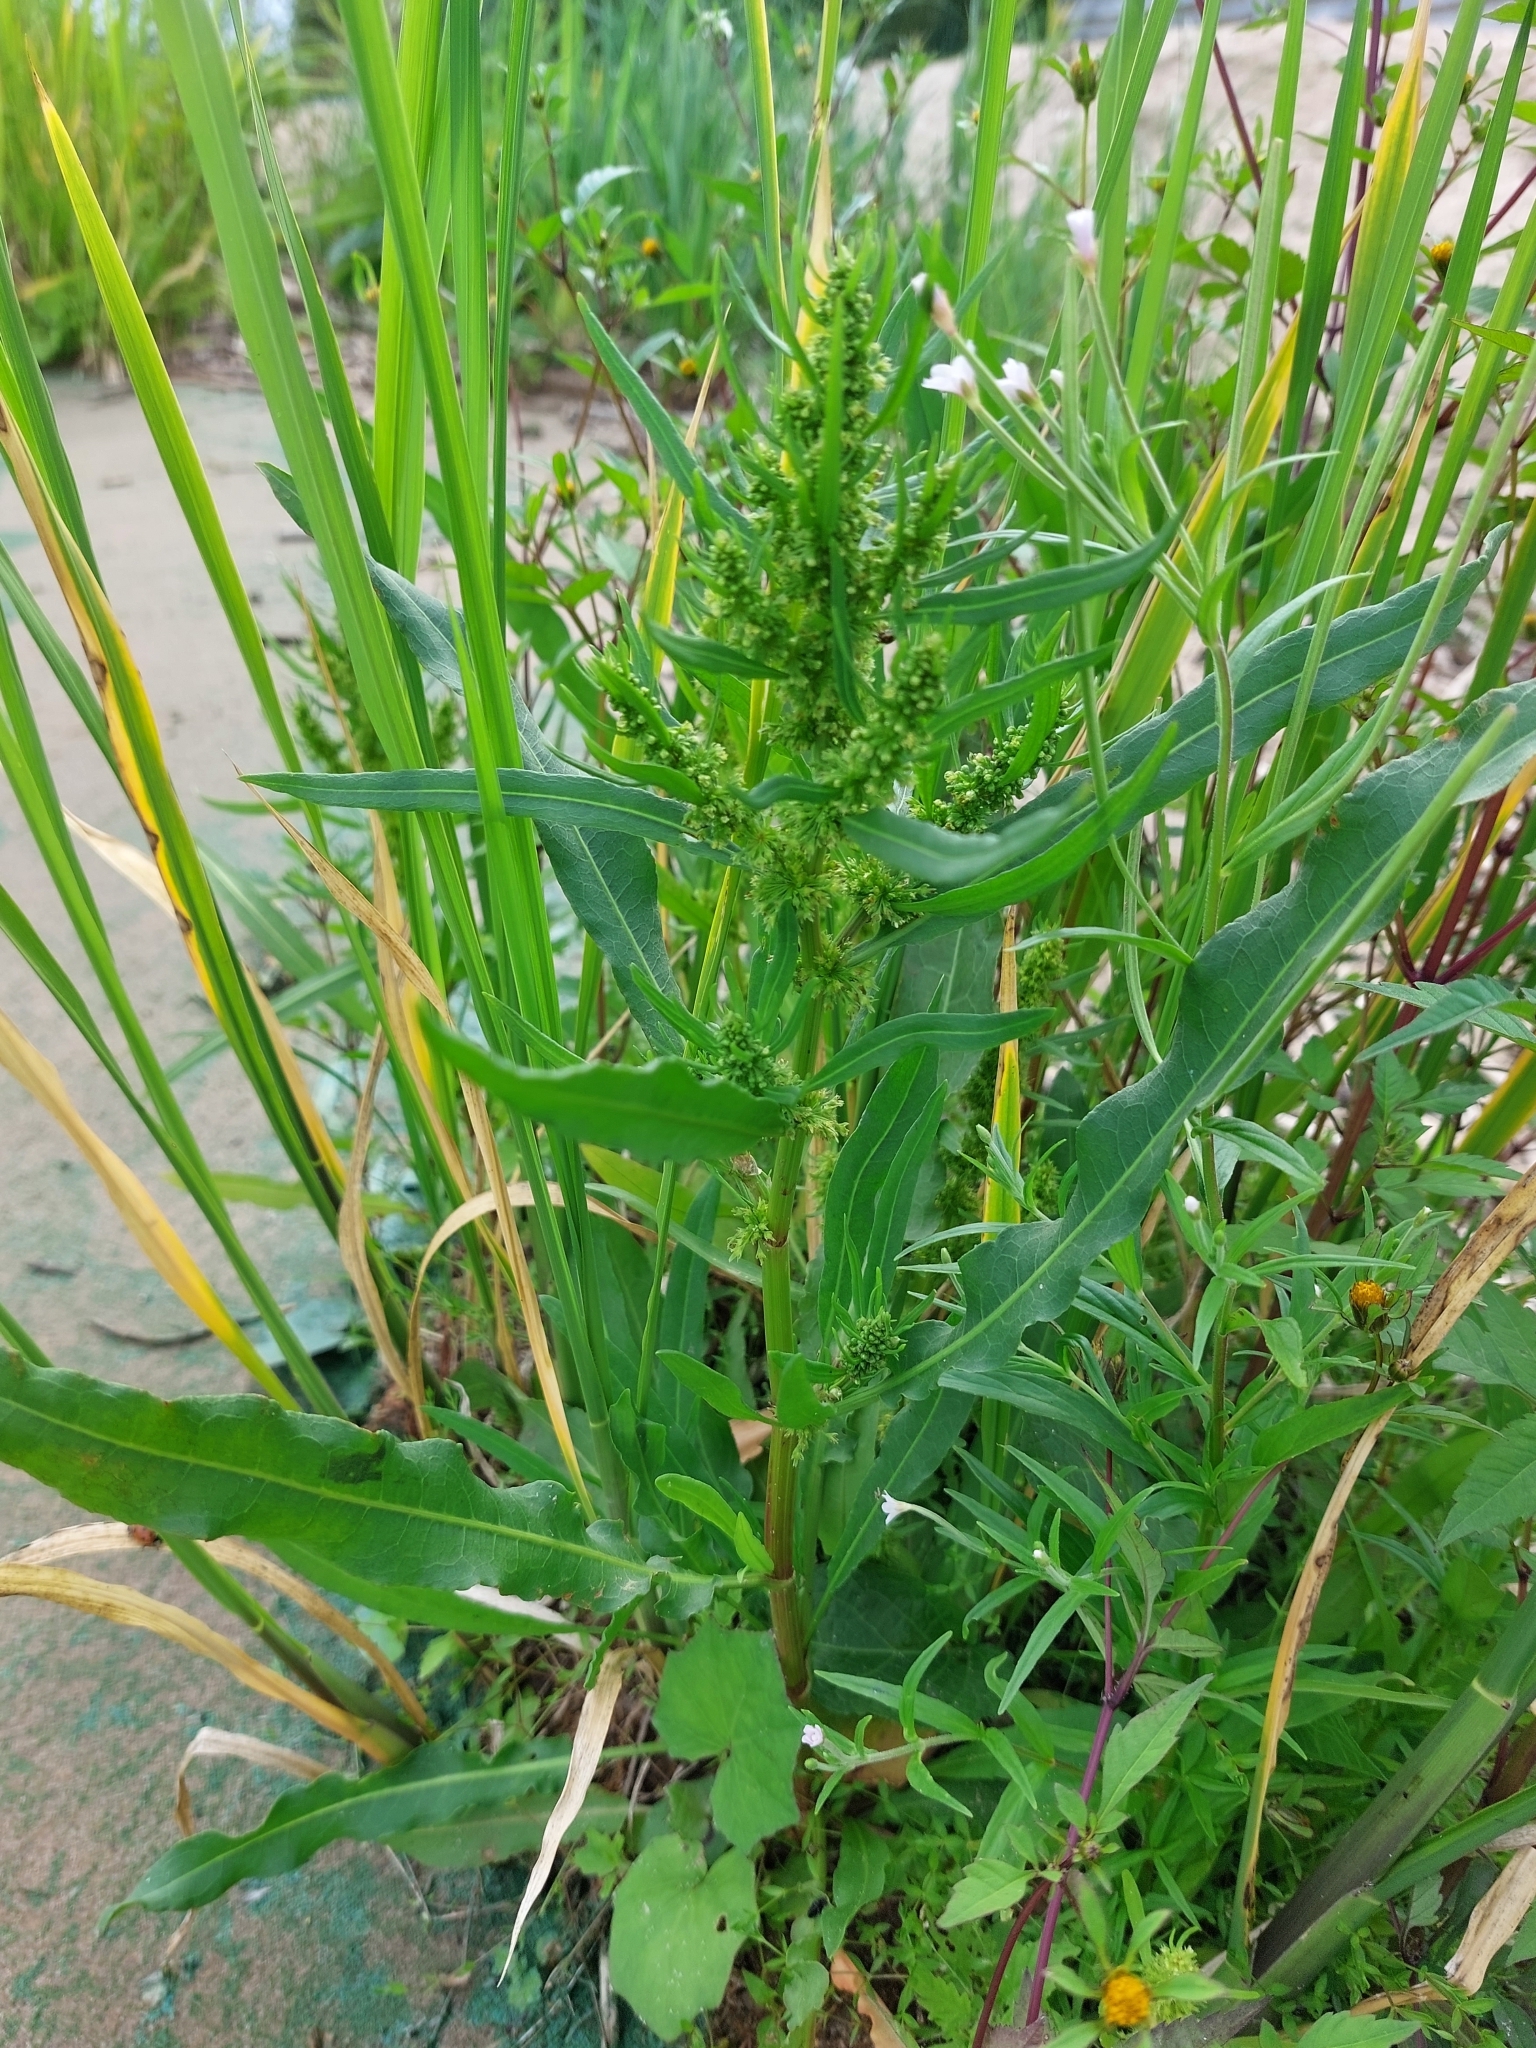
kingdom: Plantae
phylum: Tracheophyta
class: Magnoliopsida
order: Caryophyllales
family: Polygonaceae
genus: Rumex
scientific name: Rumex maritimus
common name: Golden dock
